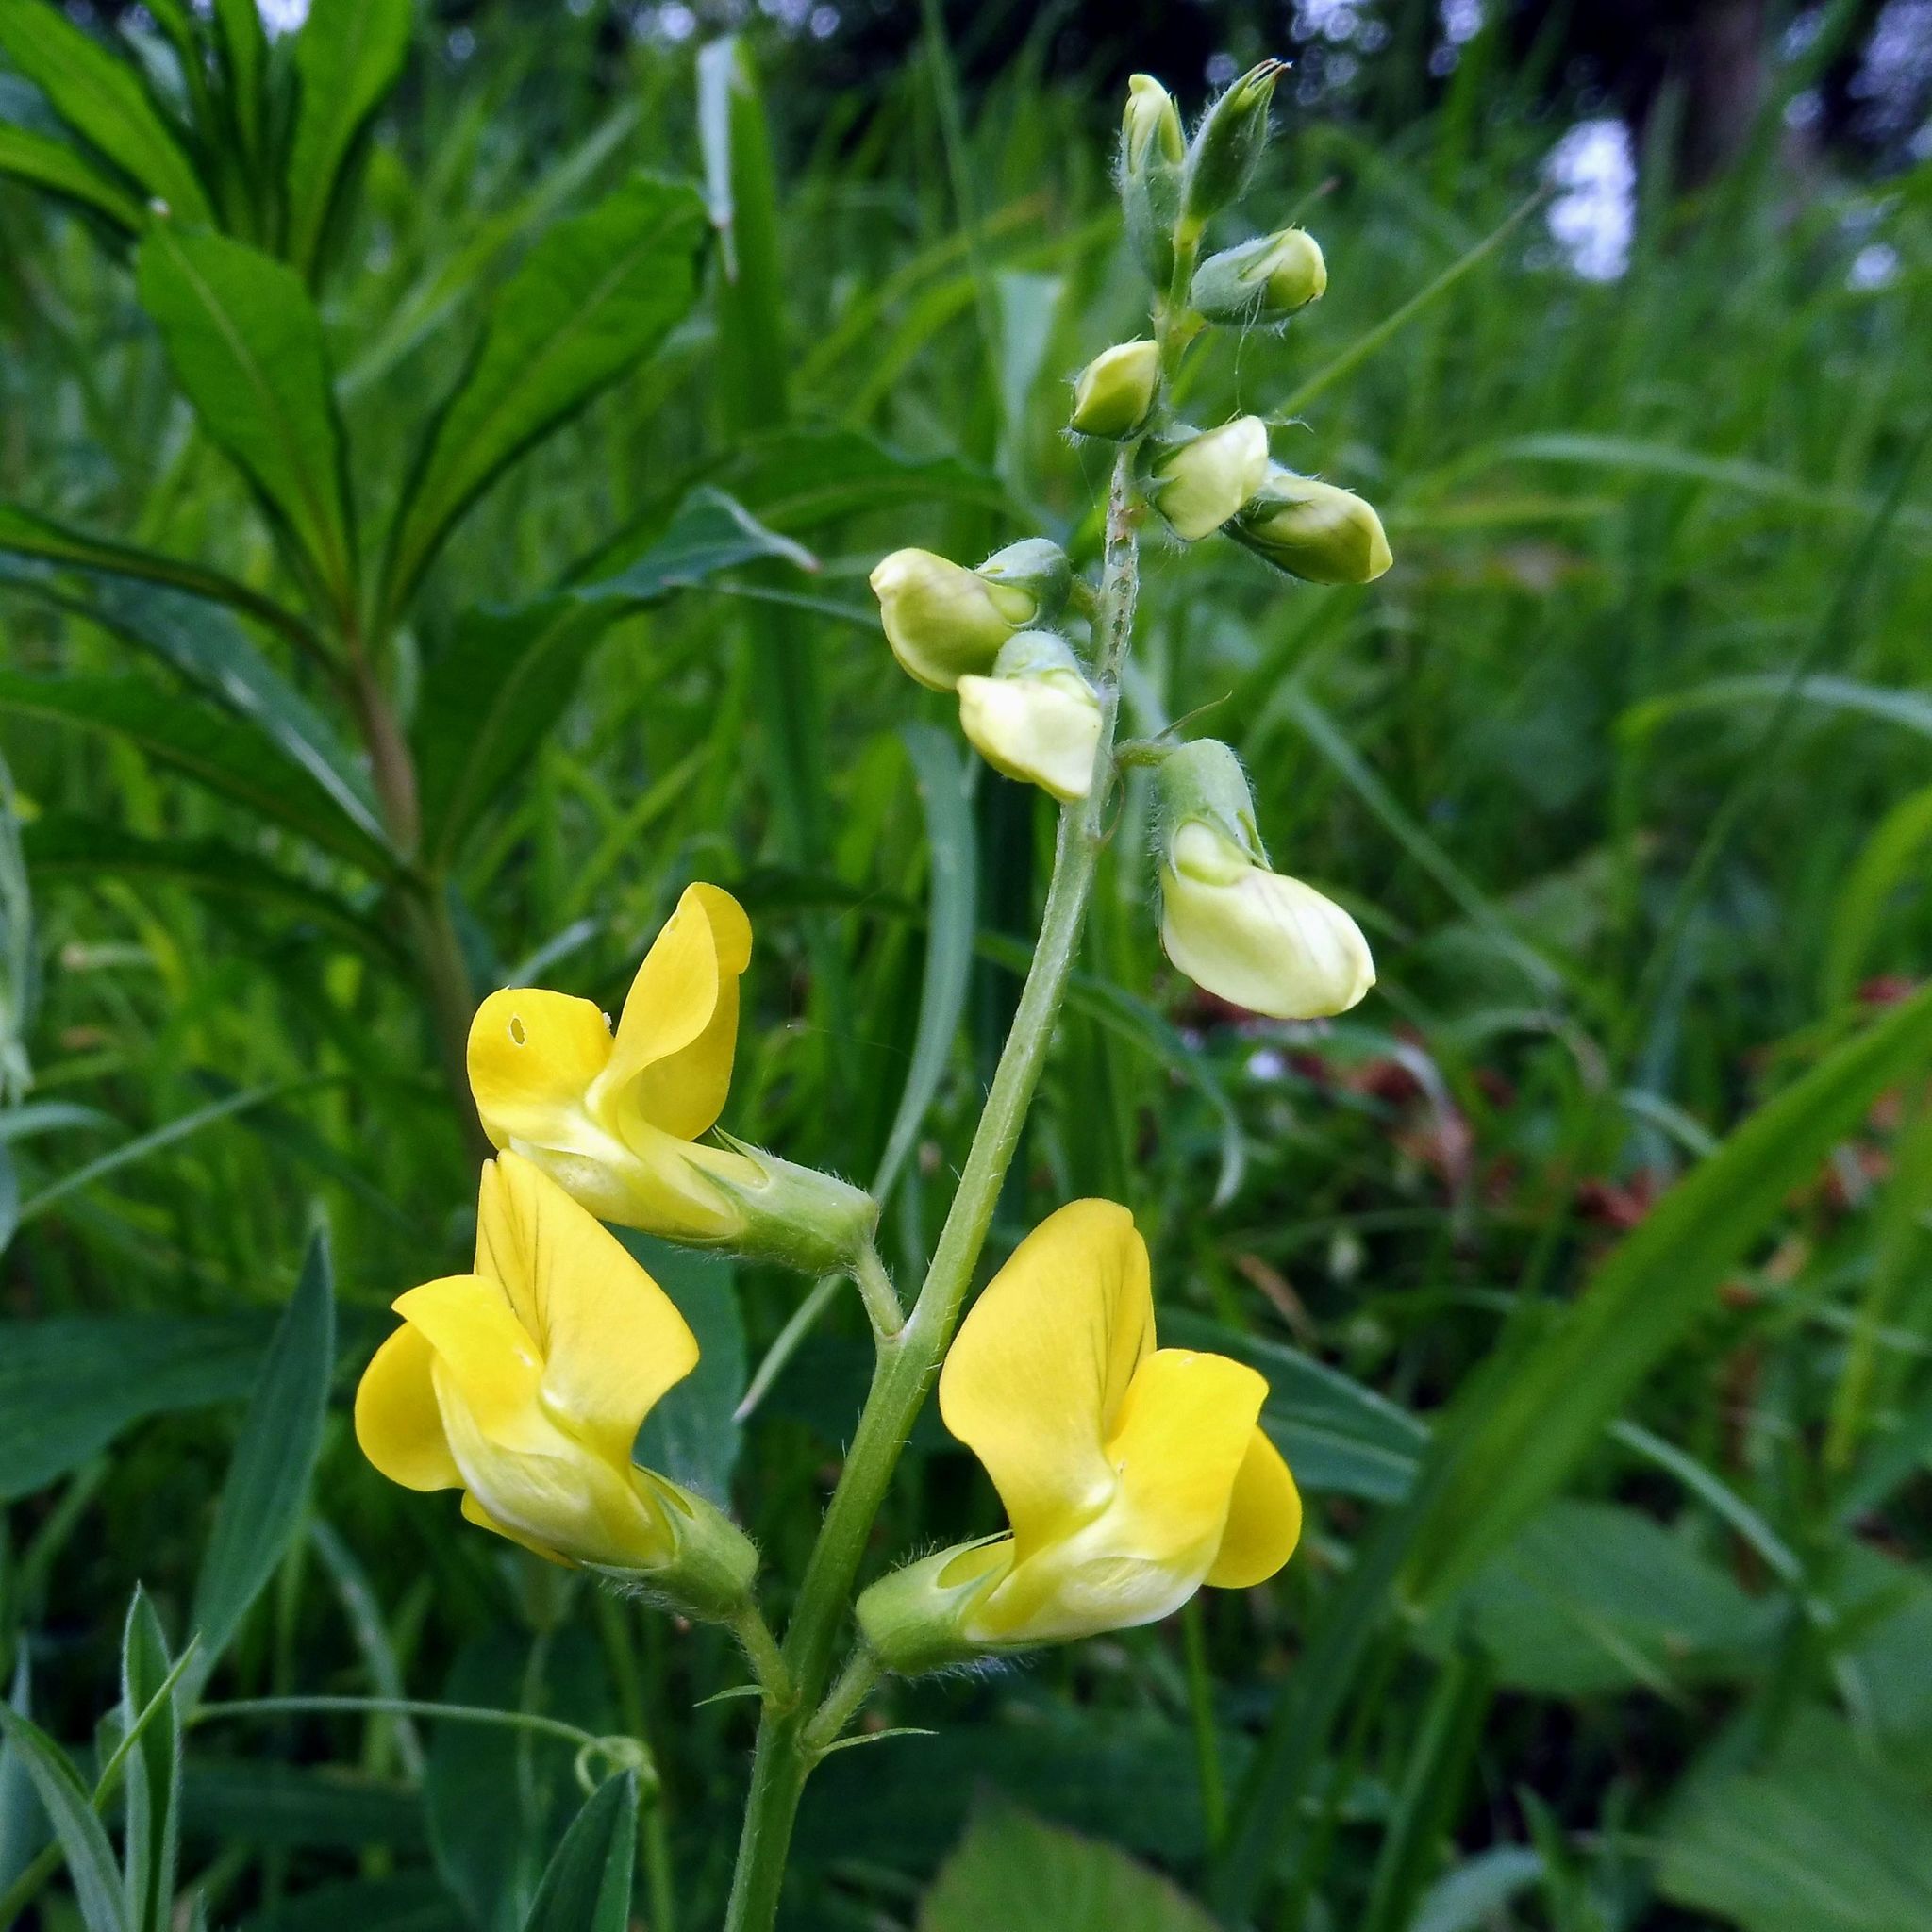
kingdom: Plantae
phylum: Tracheophyta
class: Magnoliopsida
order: Fabales
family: Fabaceae
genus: Lathyrus
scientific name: Lathyrus pratensis
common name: Meadow vetchling
